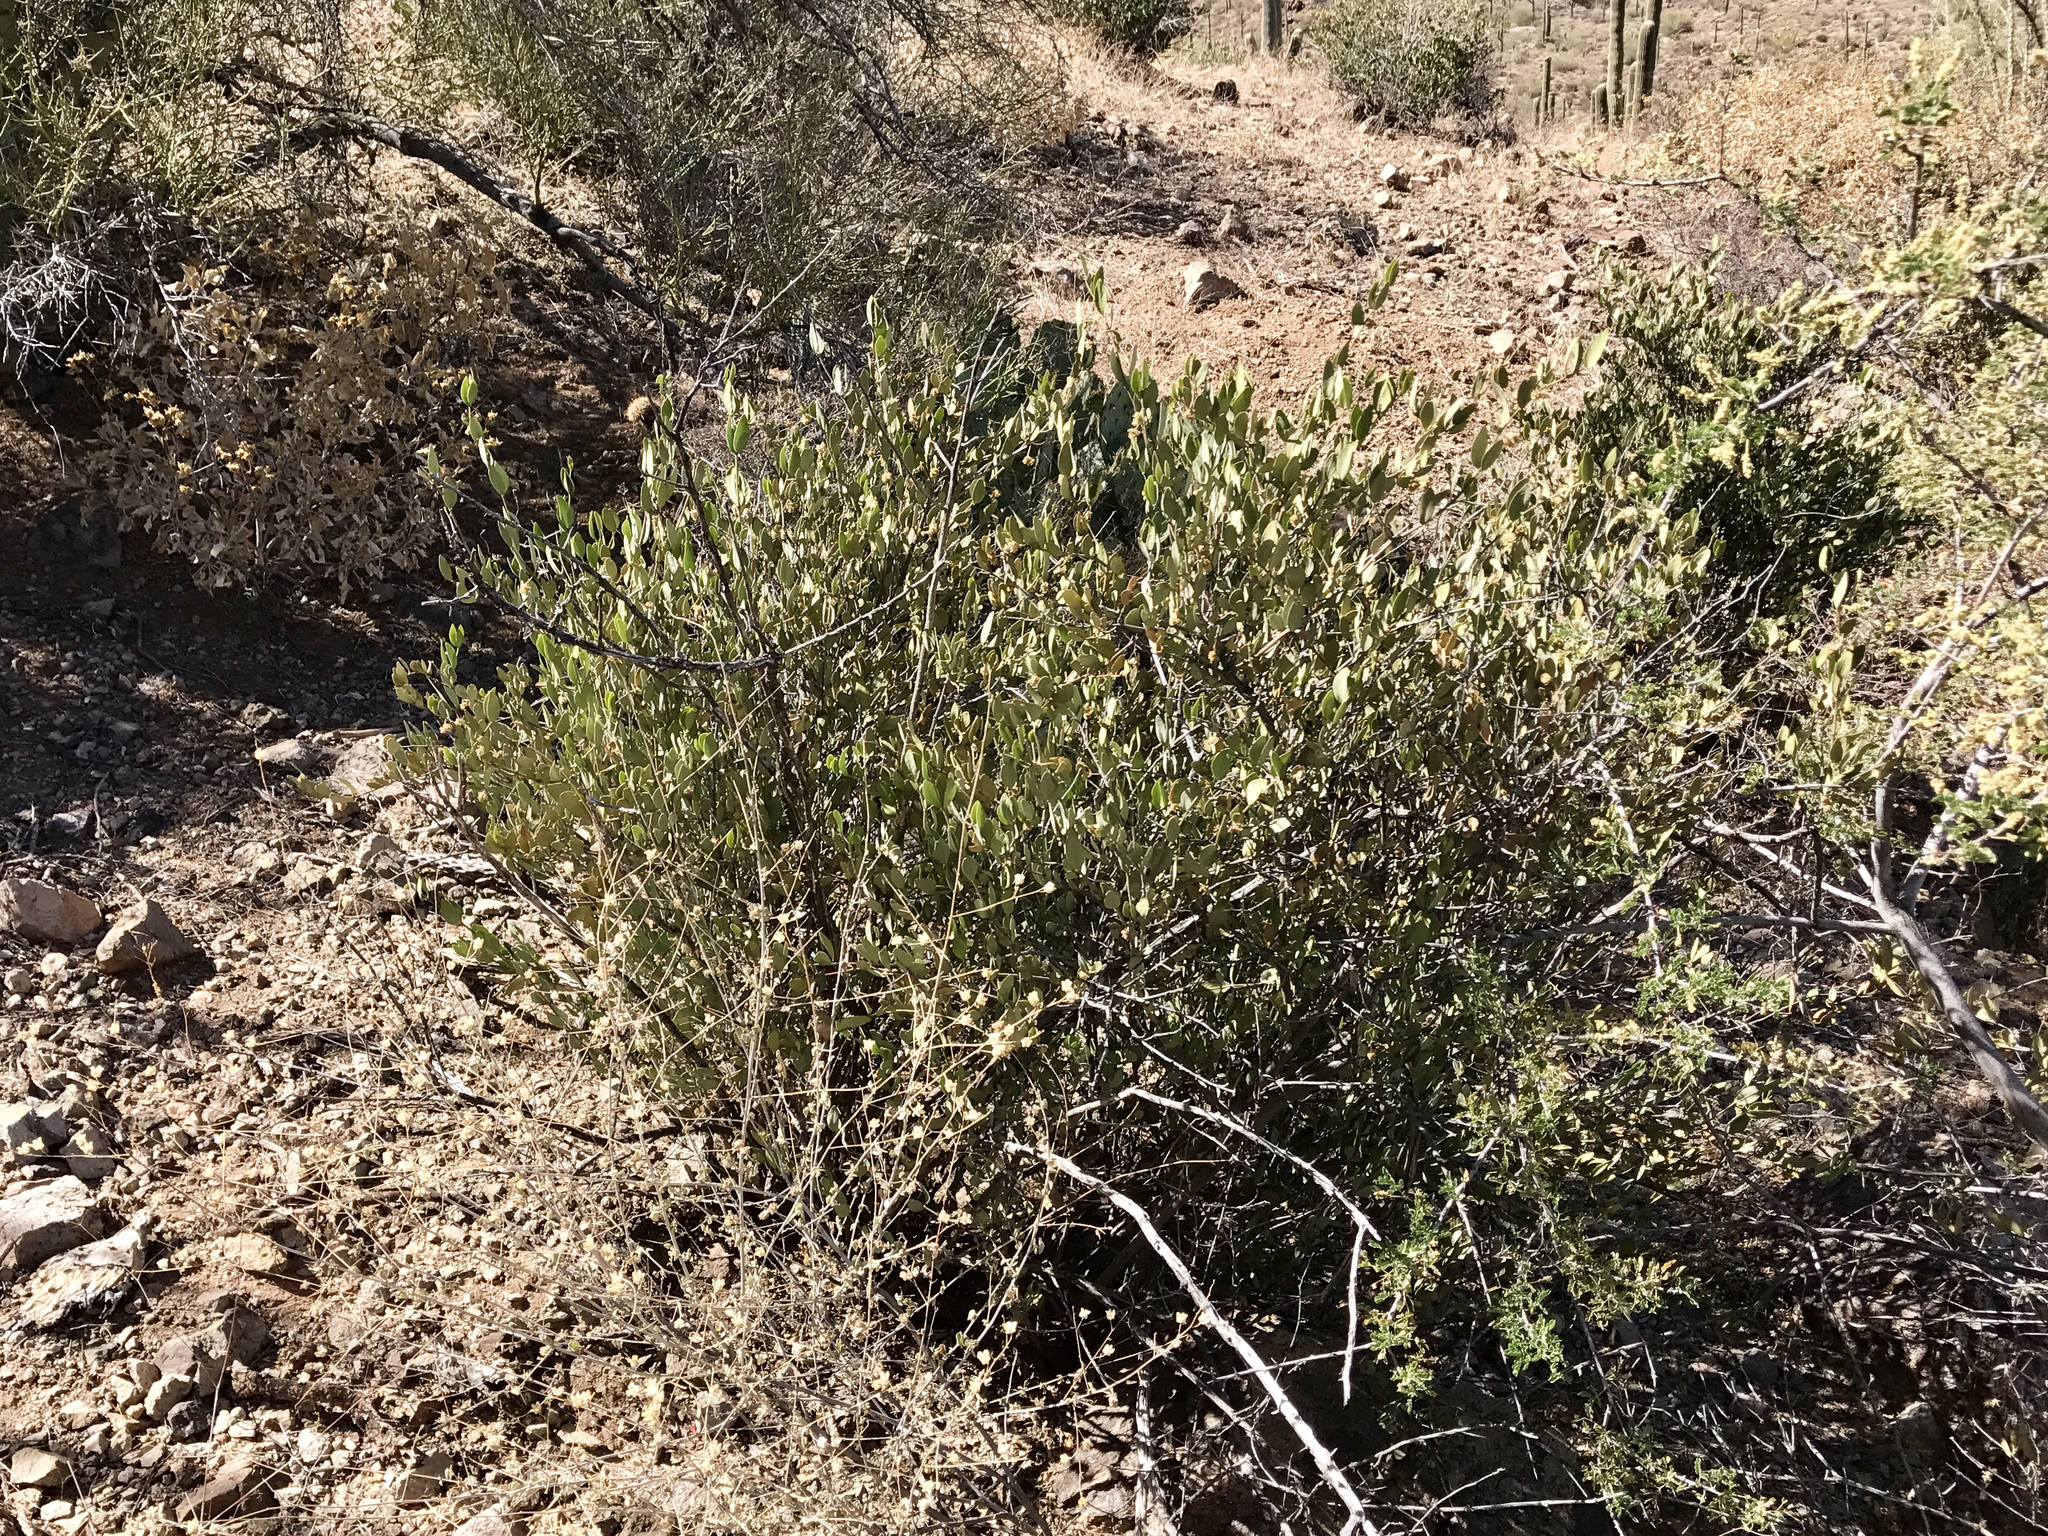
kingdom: Plantae
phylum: Tracheophyta
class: Magnoliopsida
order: Caryophyllales
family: Simmondsiaceae
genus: Simmondsia
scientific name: Simmondsia chinensis
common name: Jojoba
